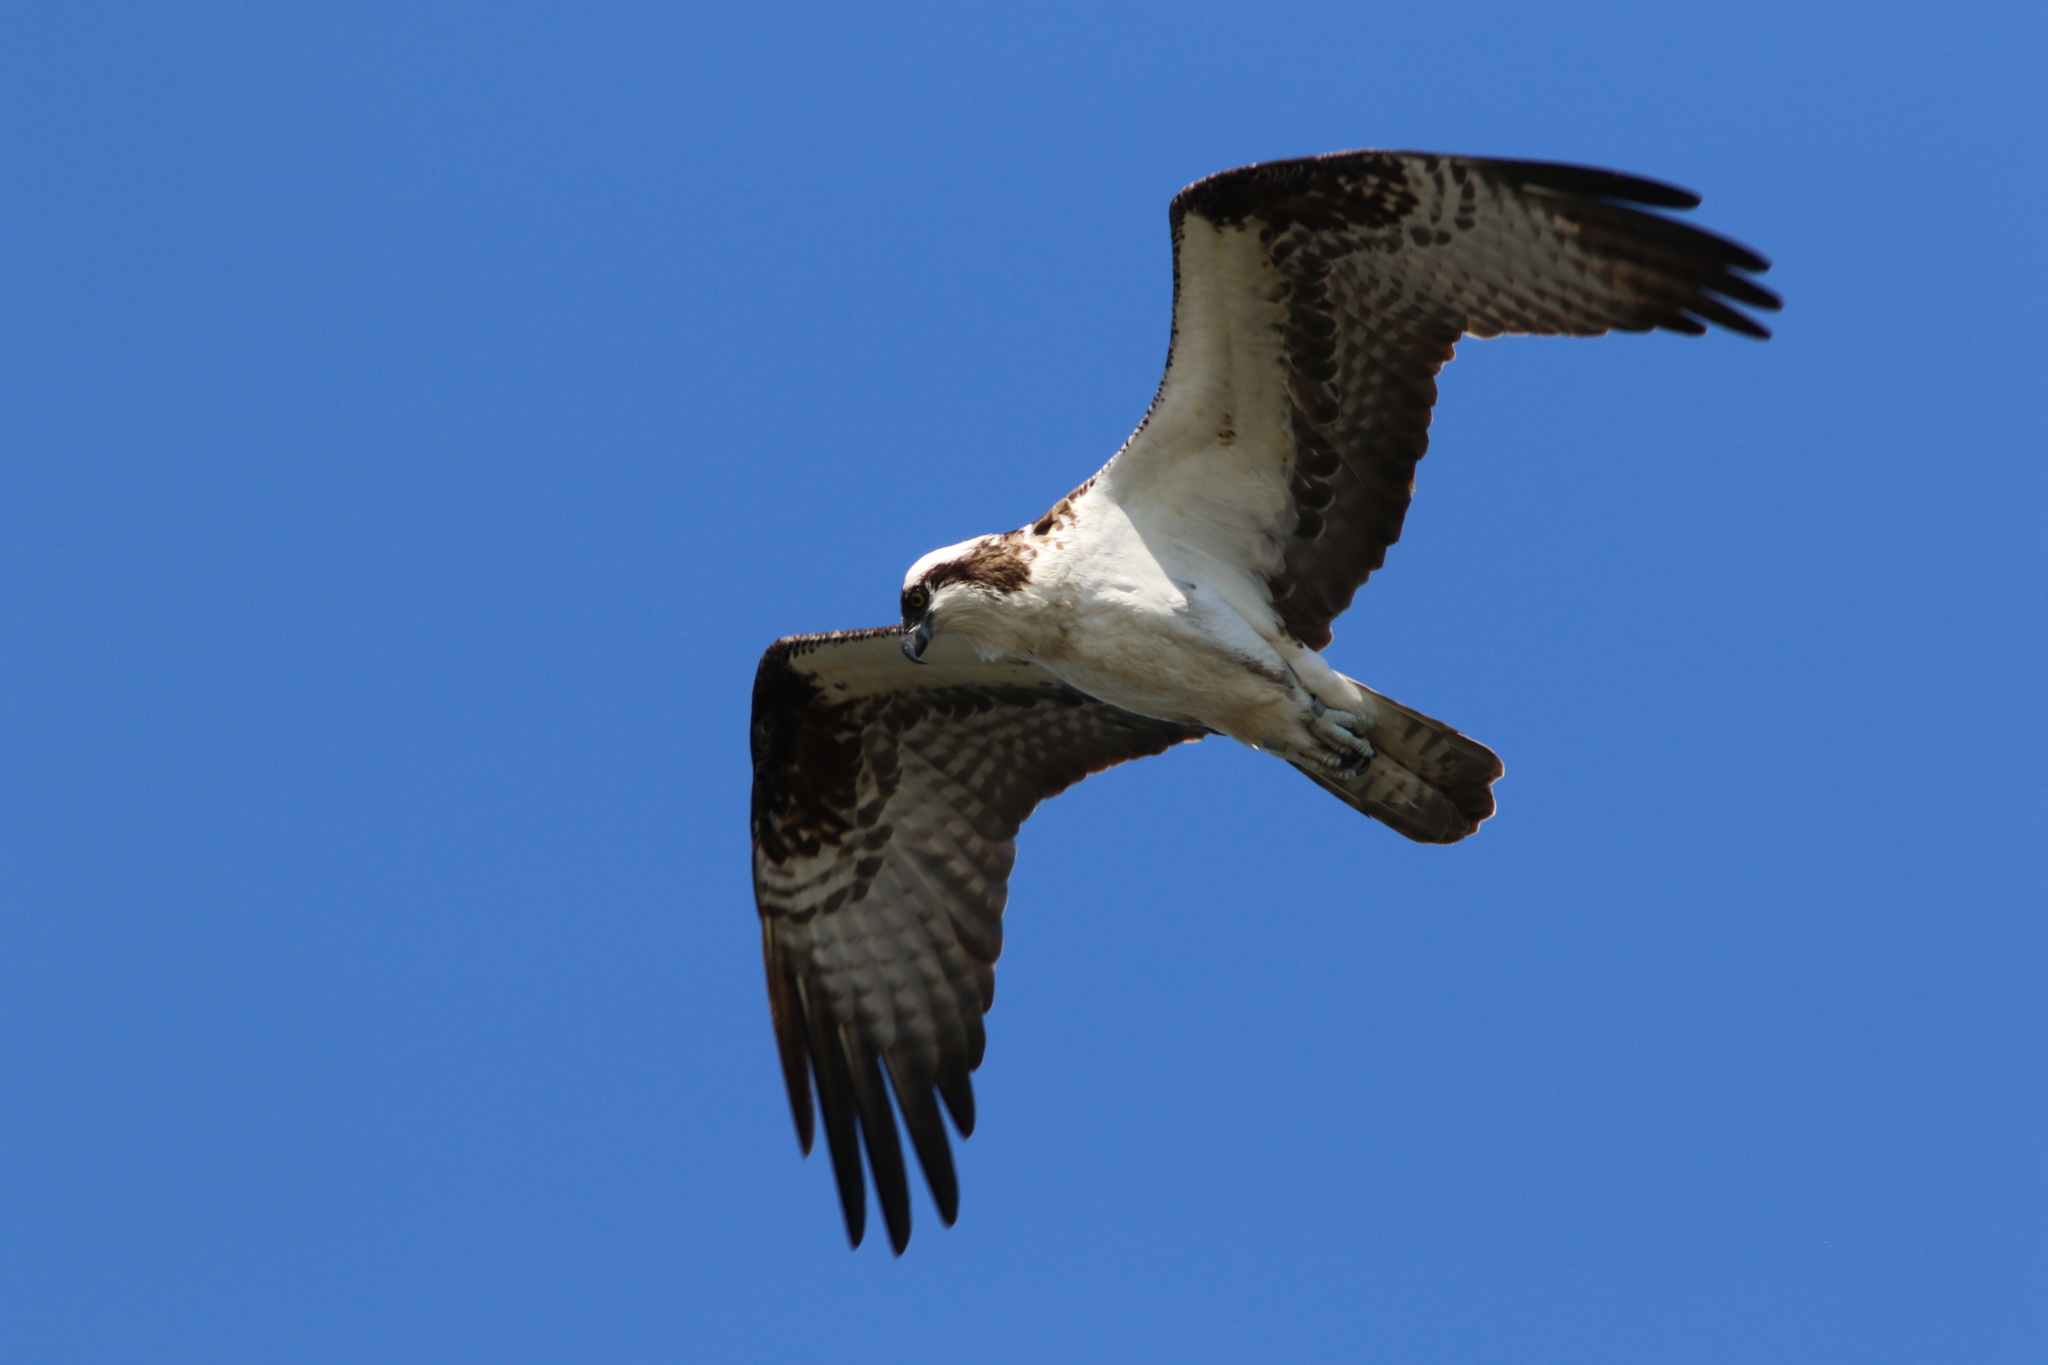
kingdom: Animalia
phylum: Chordata
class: Aves
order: Accipitriformes
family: Pandionidae
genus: Pandion
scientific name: Pandion haliaetus
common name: Osprey
